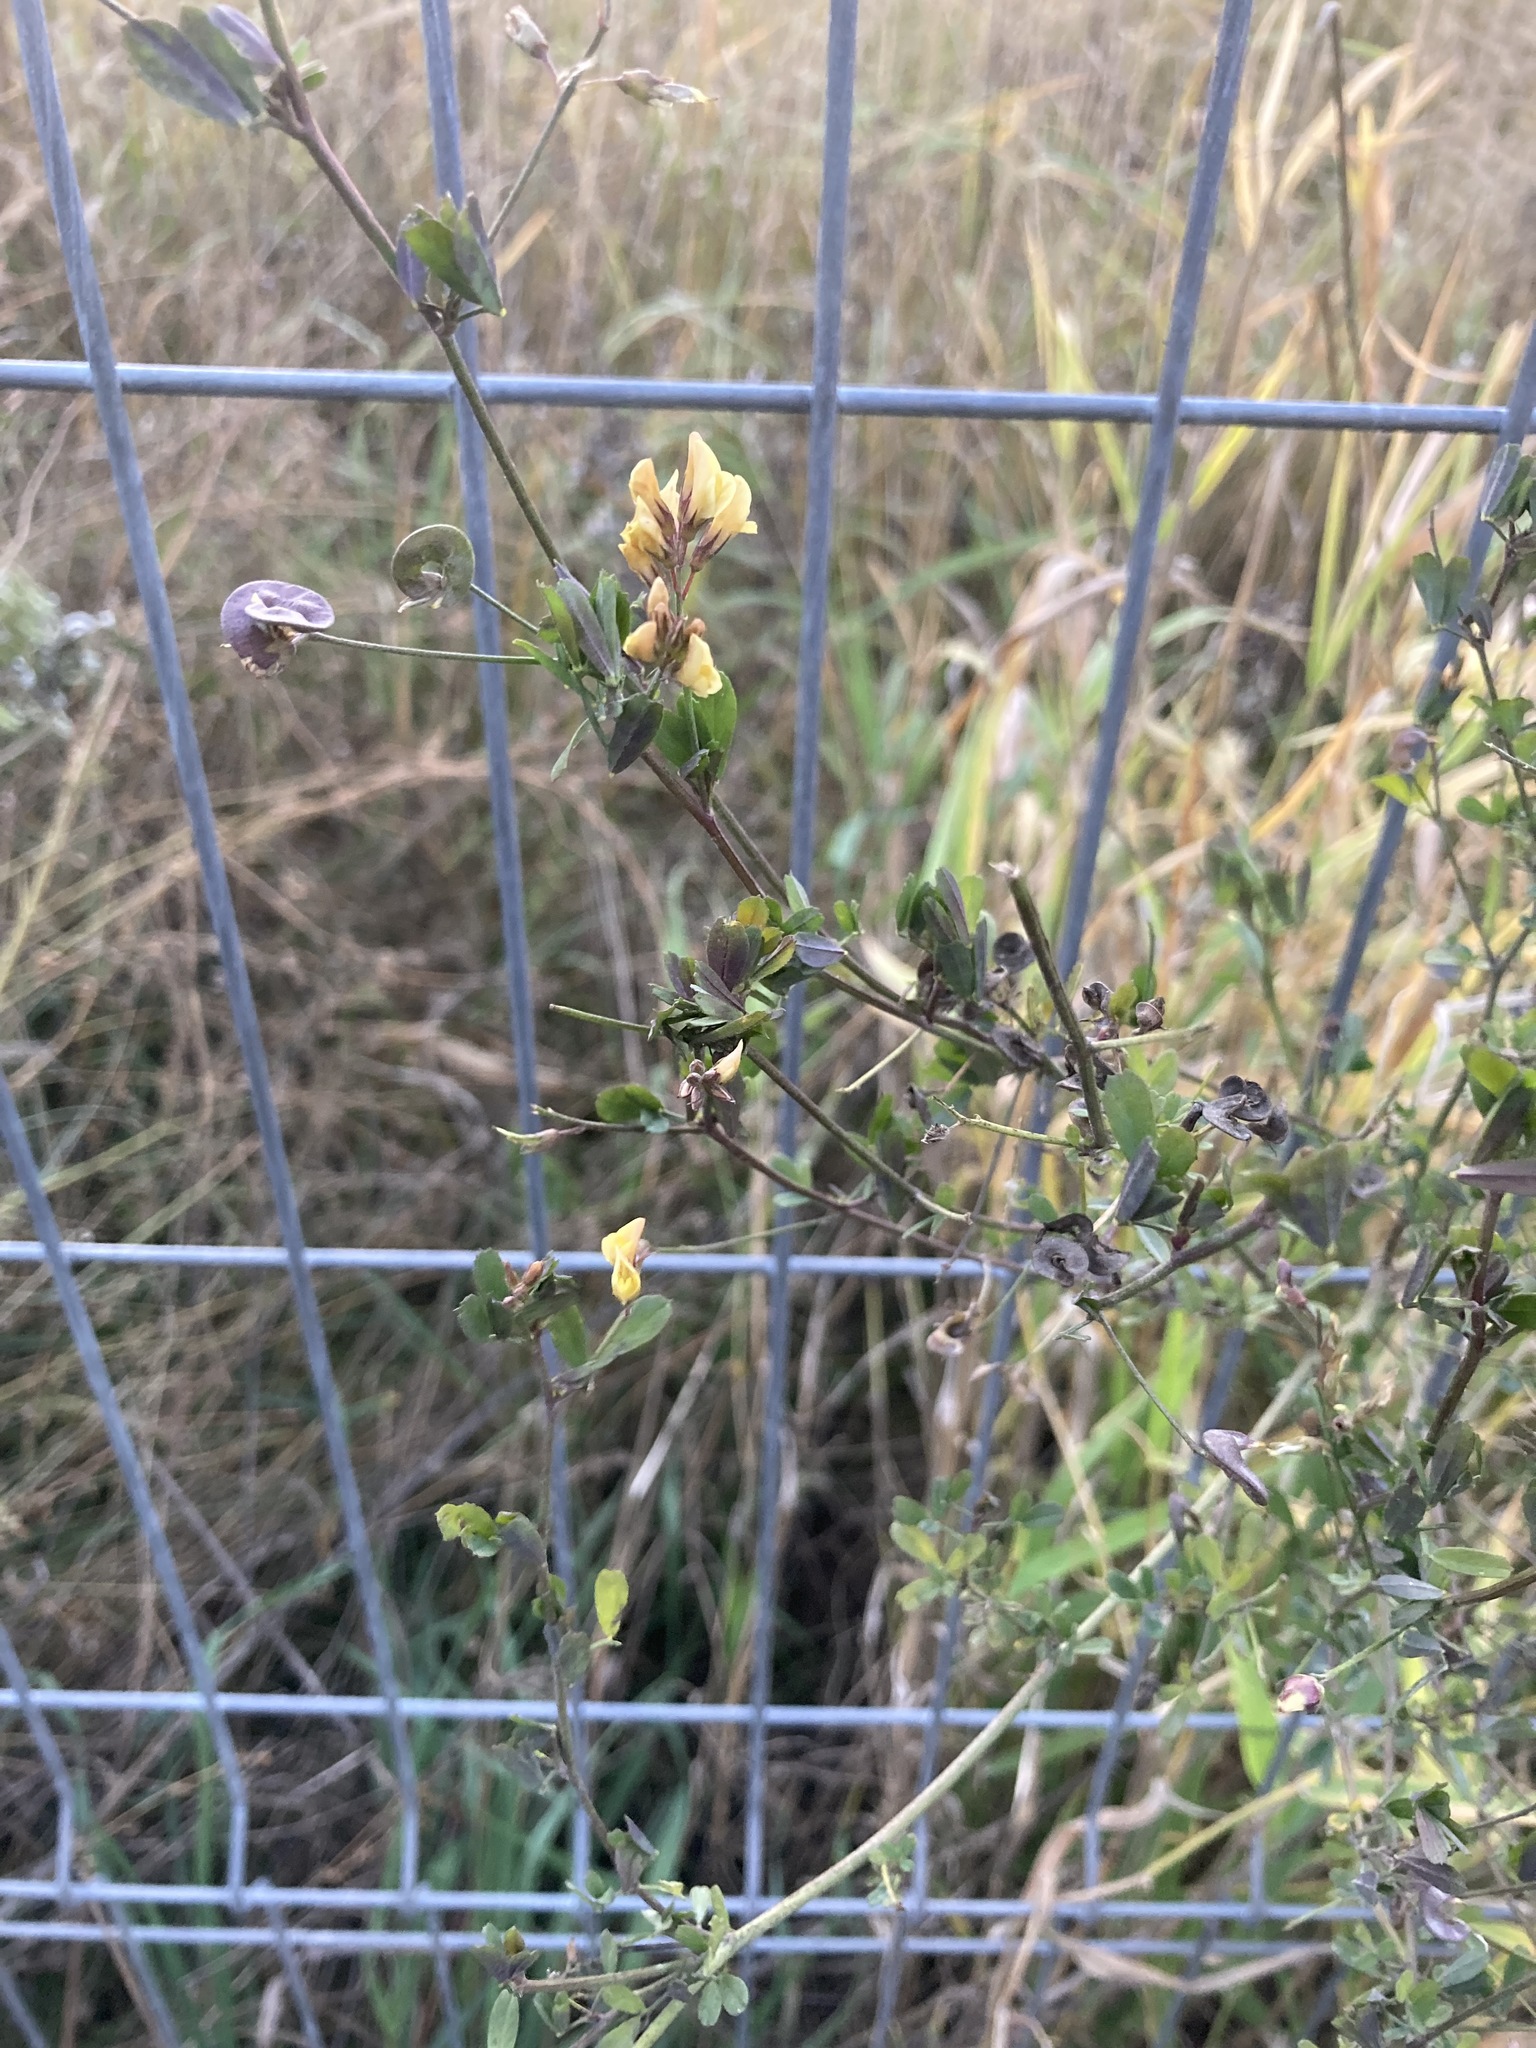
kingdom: Plantae
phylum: Tracheophyta
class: Magnoliopsida
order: Fabales
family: Fabaceae
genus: Medicago
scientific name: Medicago varia
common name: Sand lucerne
